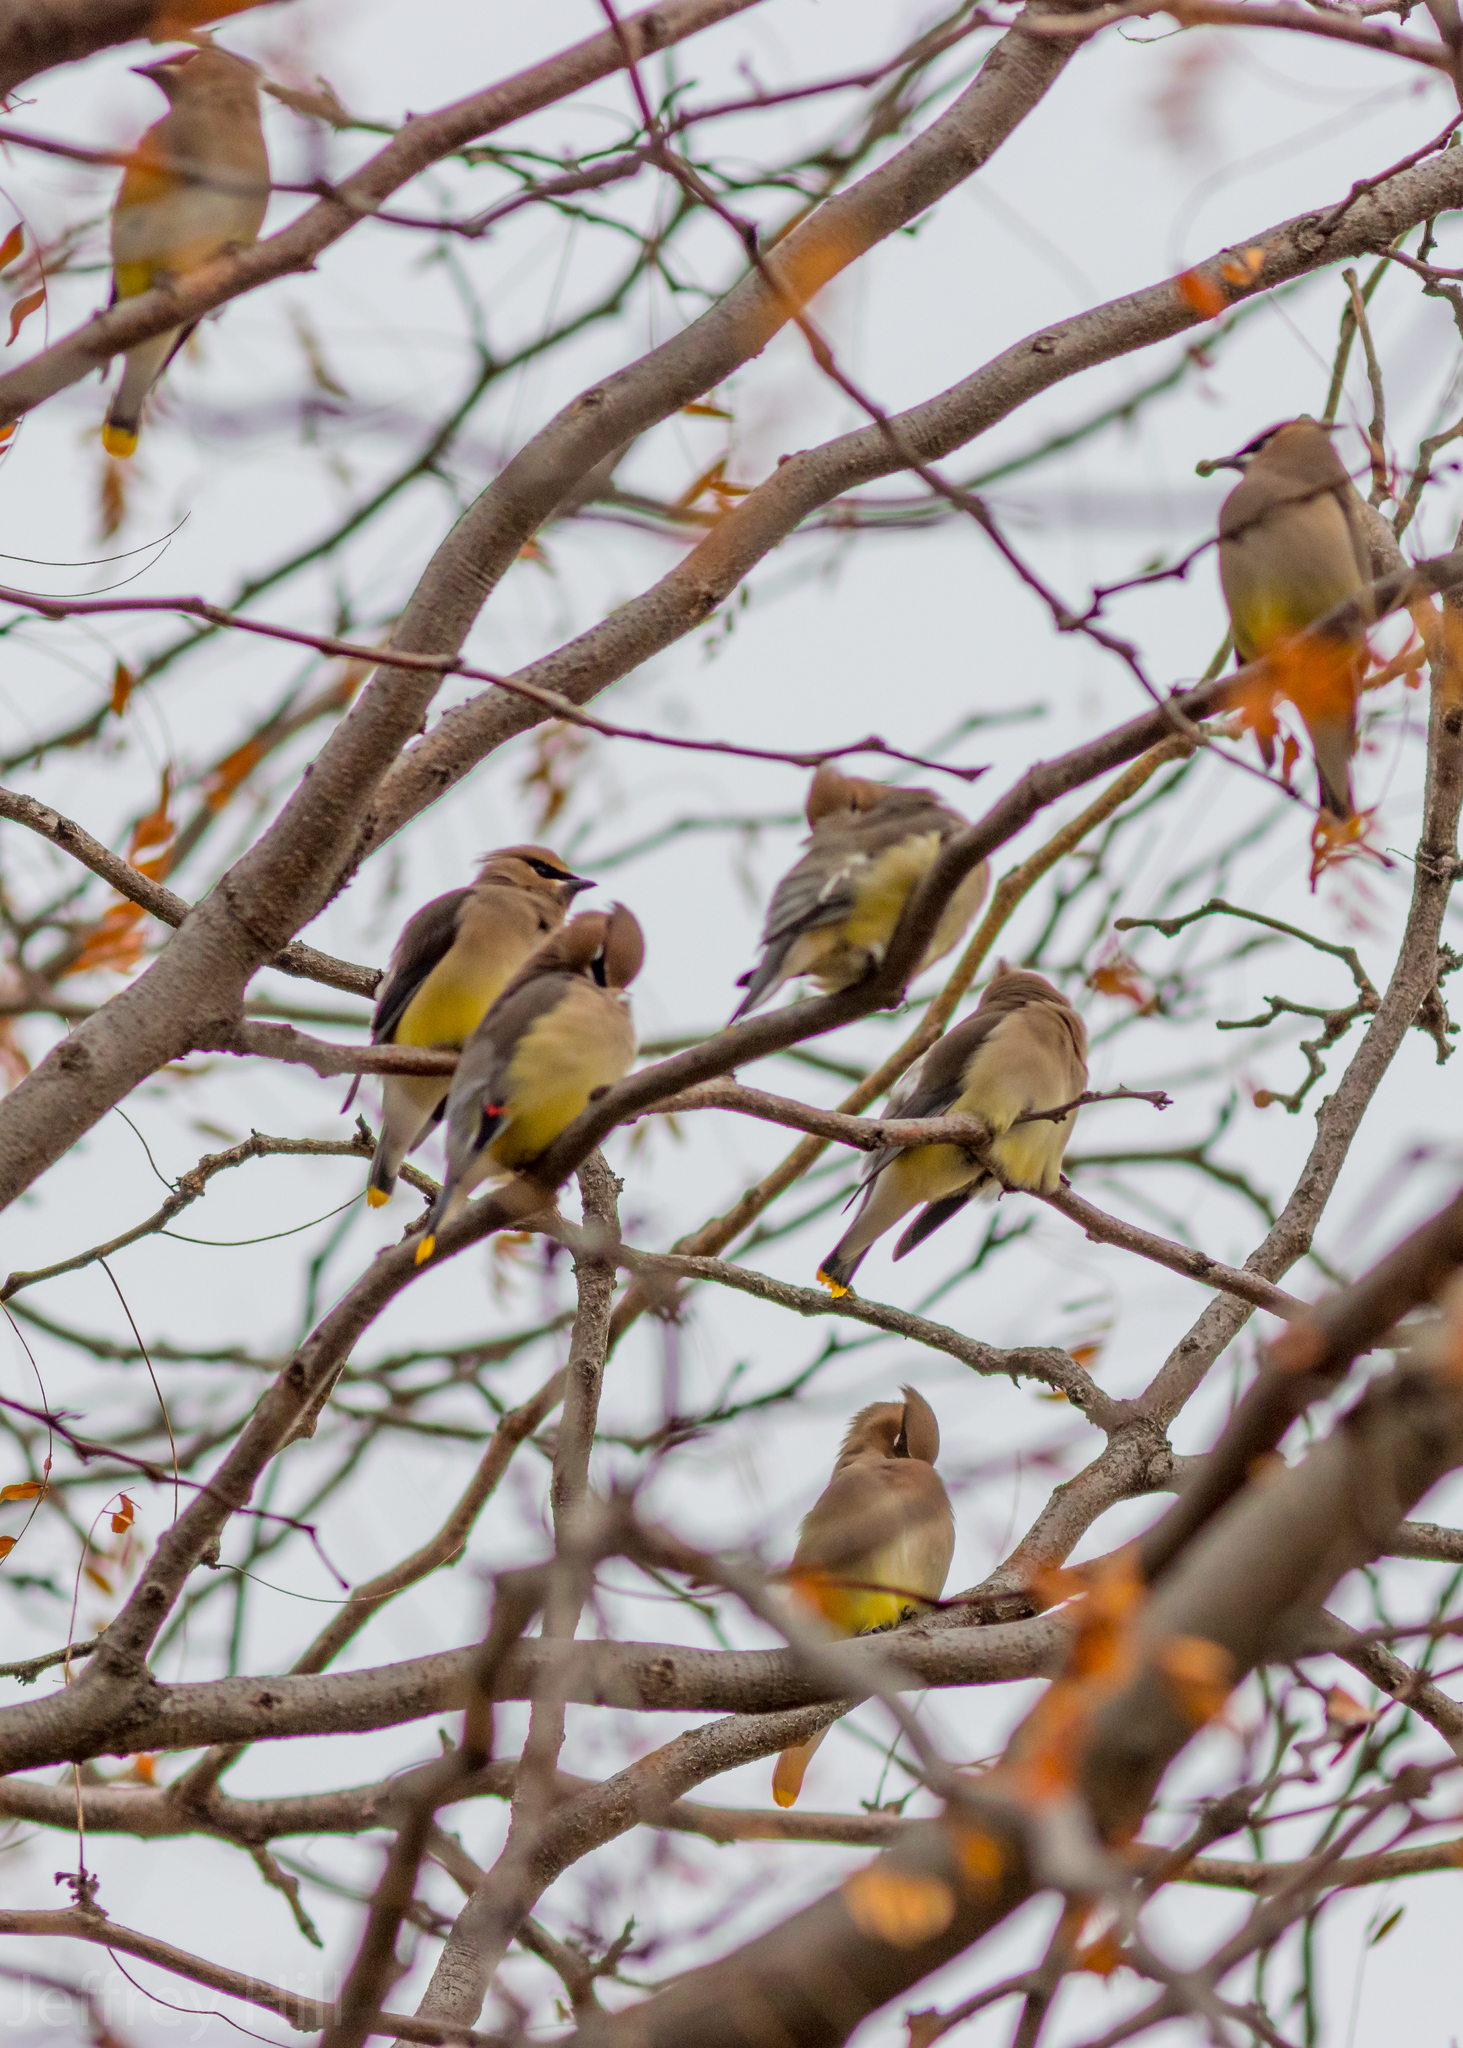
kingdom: Animalia
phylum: Chordata
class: Aves
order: Passeriformes
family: Bombycillidae
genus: Bombycilla
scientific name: Bombycilla cedrorum
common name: Cedar waxwing
